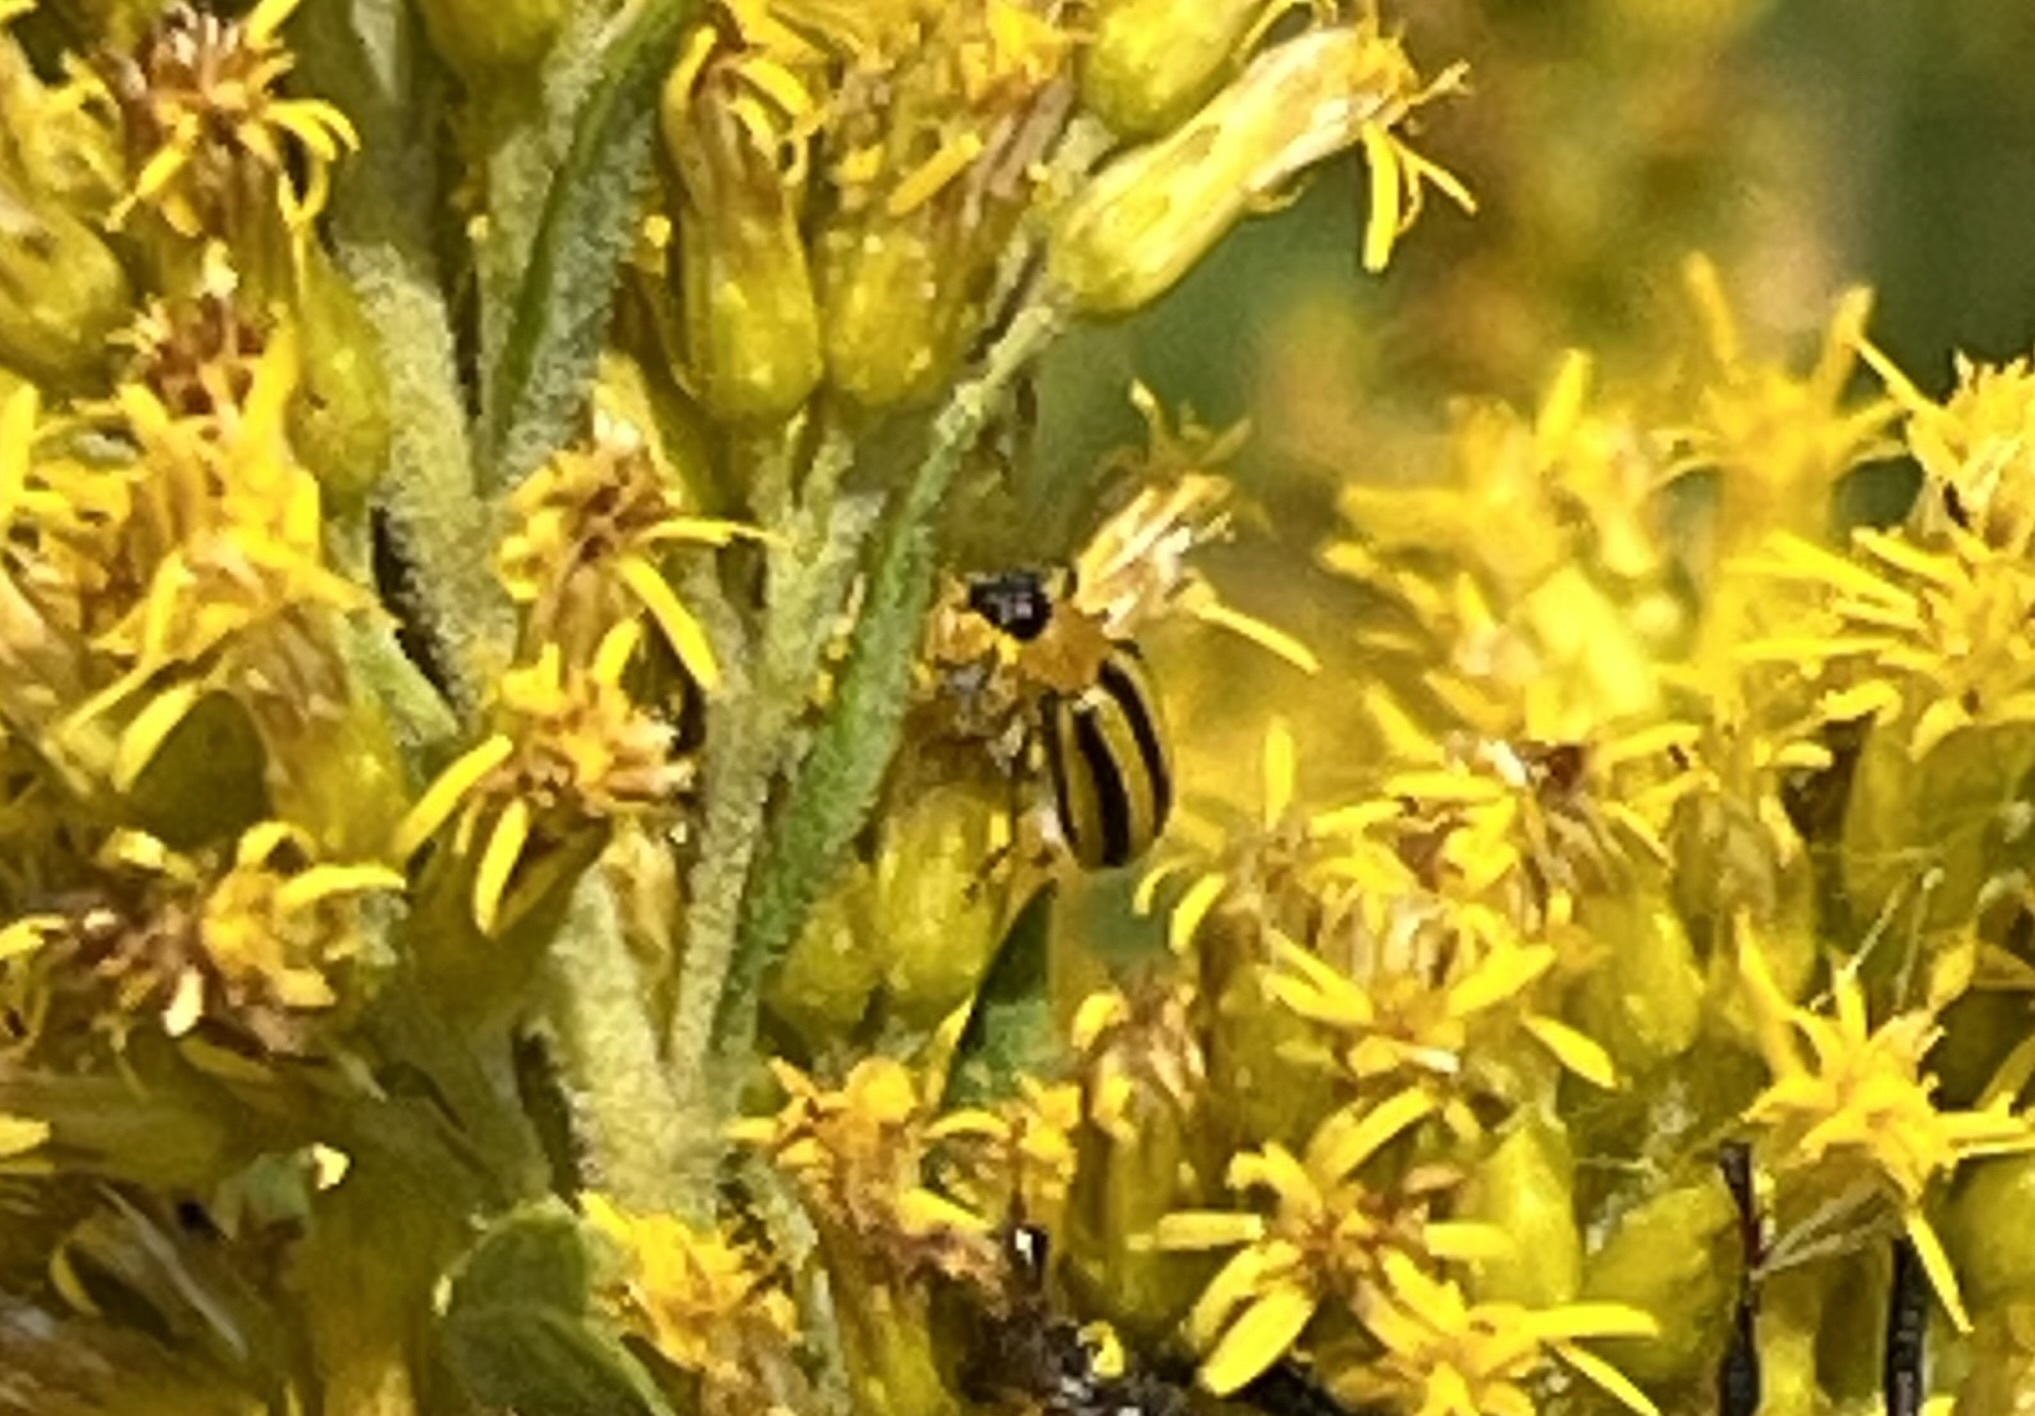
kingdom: Animalia
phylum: Arthropoda
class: Insecta
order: Coleoptera
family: Chrysomelidae
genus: Acalymma
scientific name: Acalymma vittatum
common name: Striped cucumber beetle
